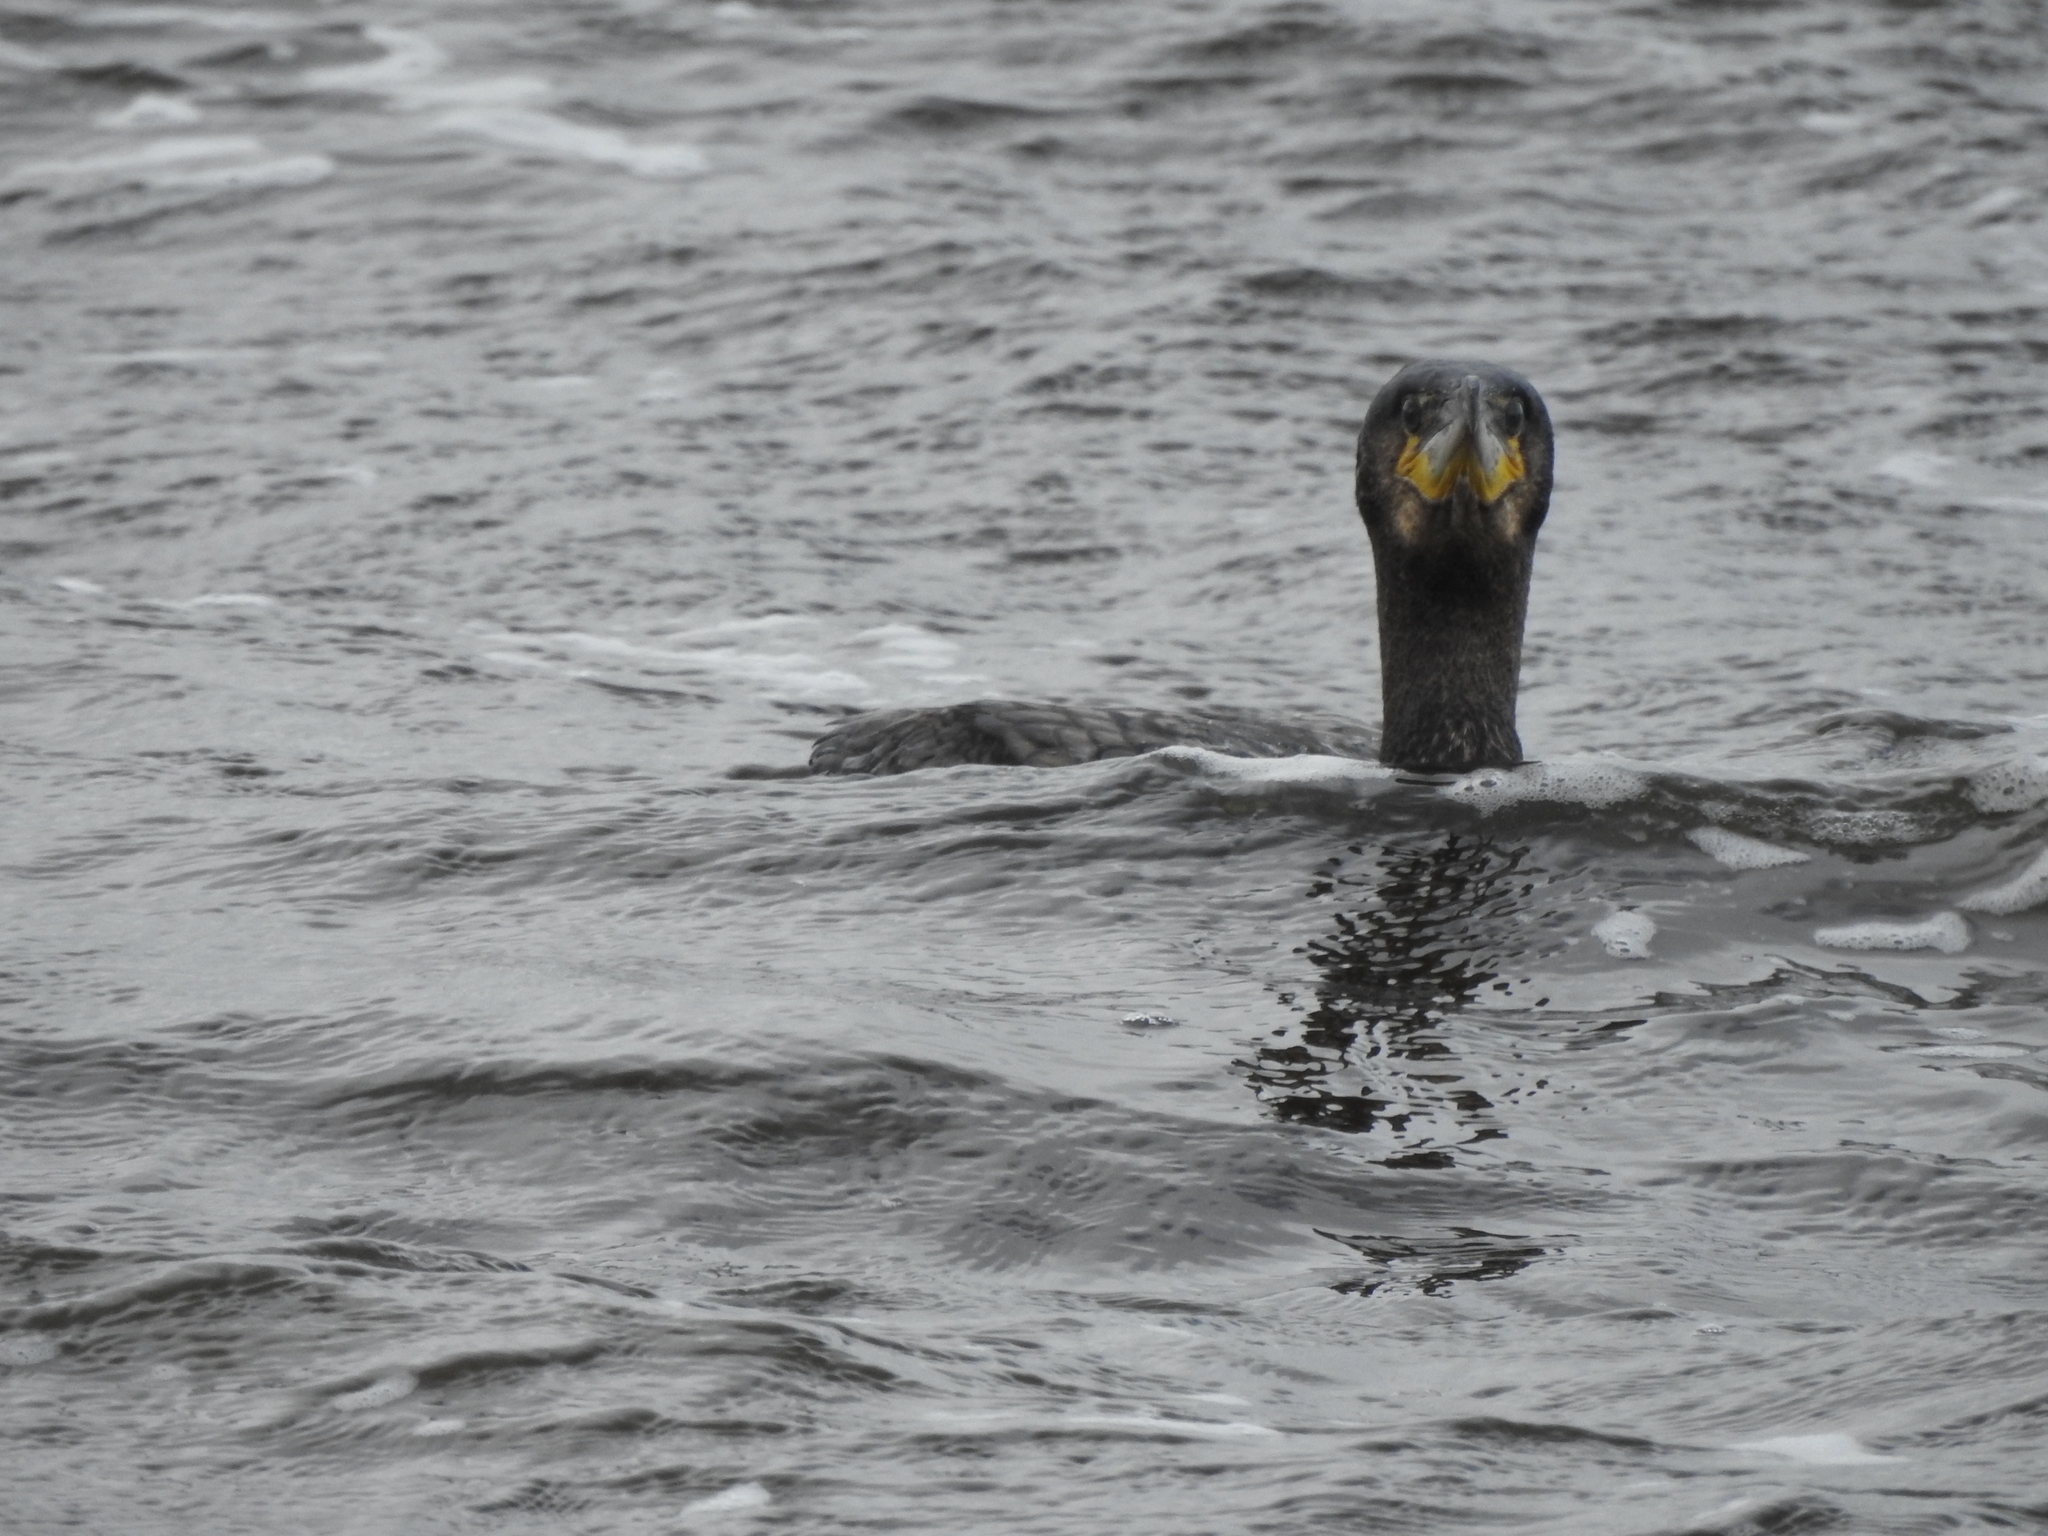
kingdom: Animalia
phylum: Chordata
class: Aves
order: Suliformes
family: Phalacrocoracidae
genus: Phalacrocorax
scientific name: Phalacrocorax carbo
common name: Great cormorant
